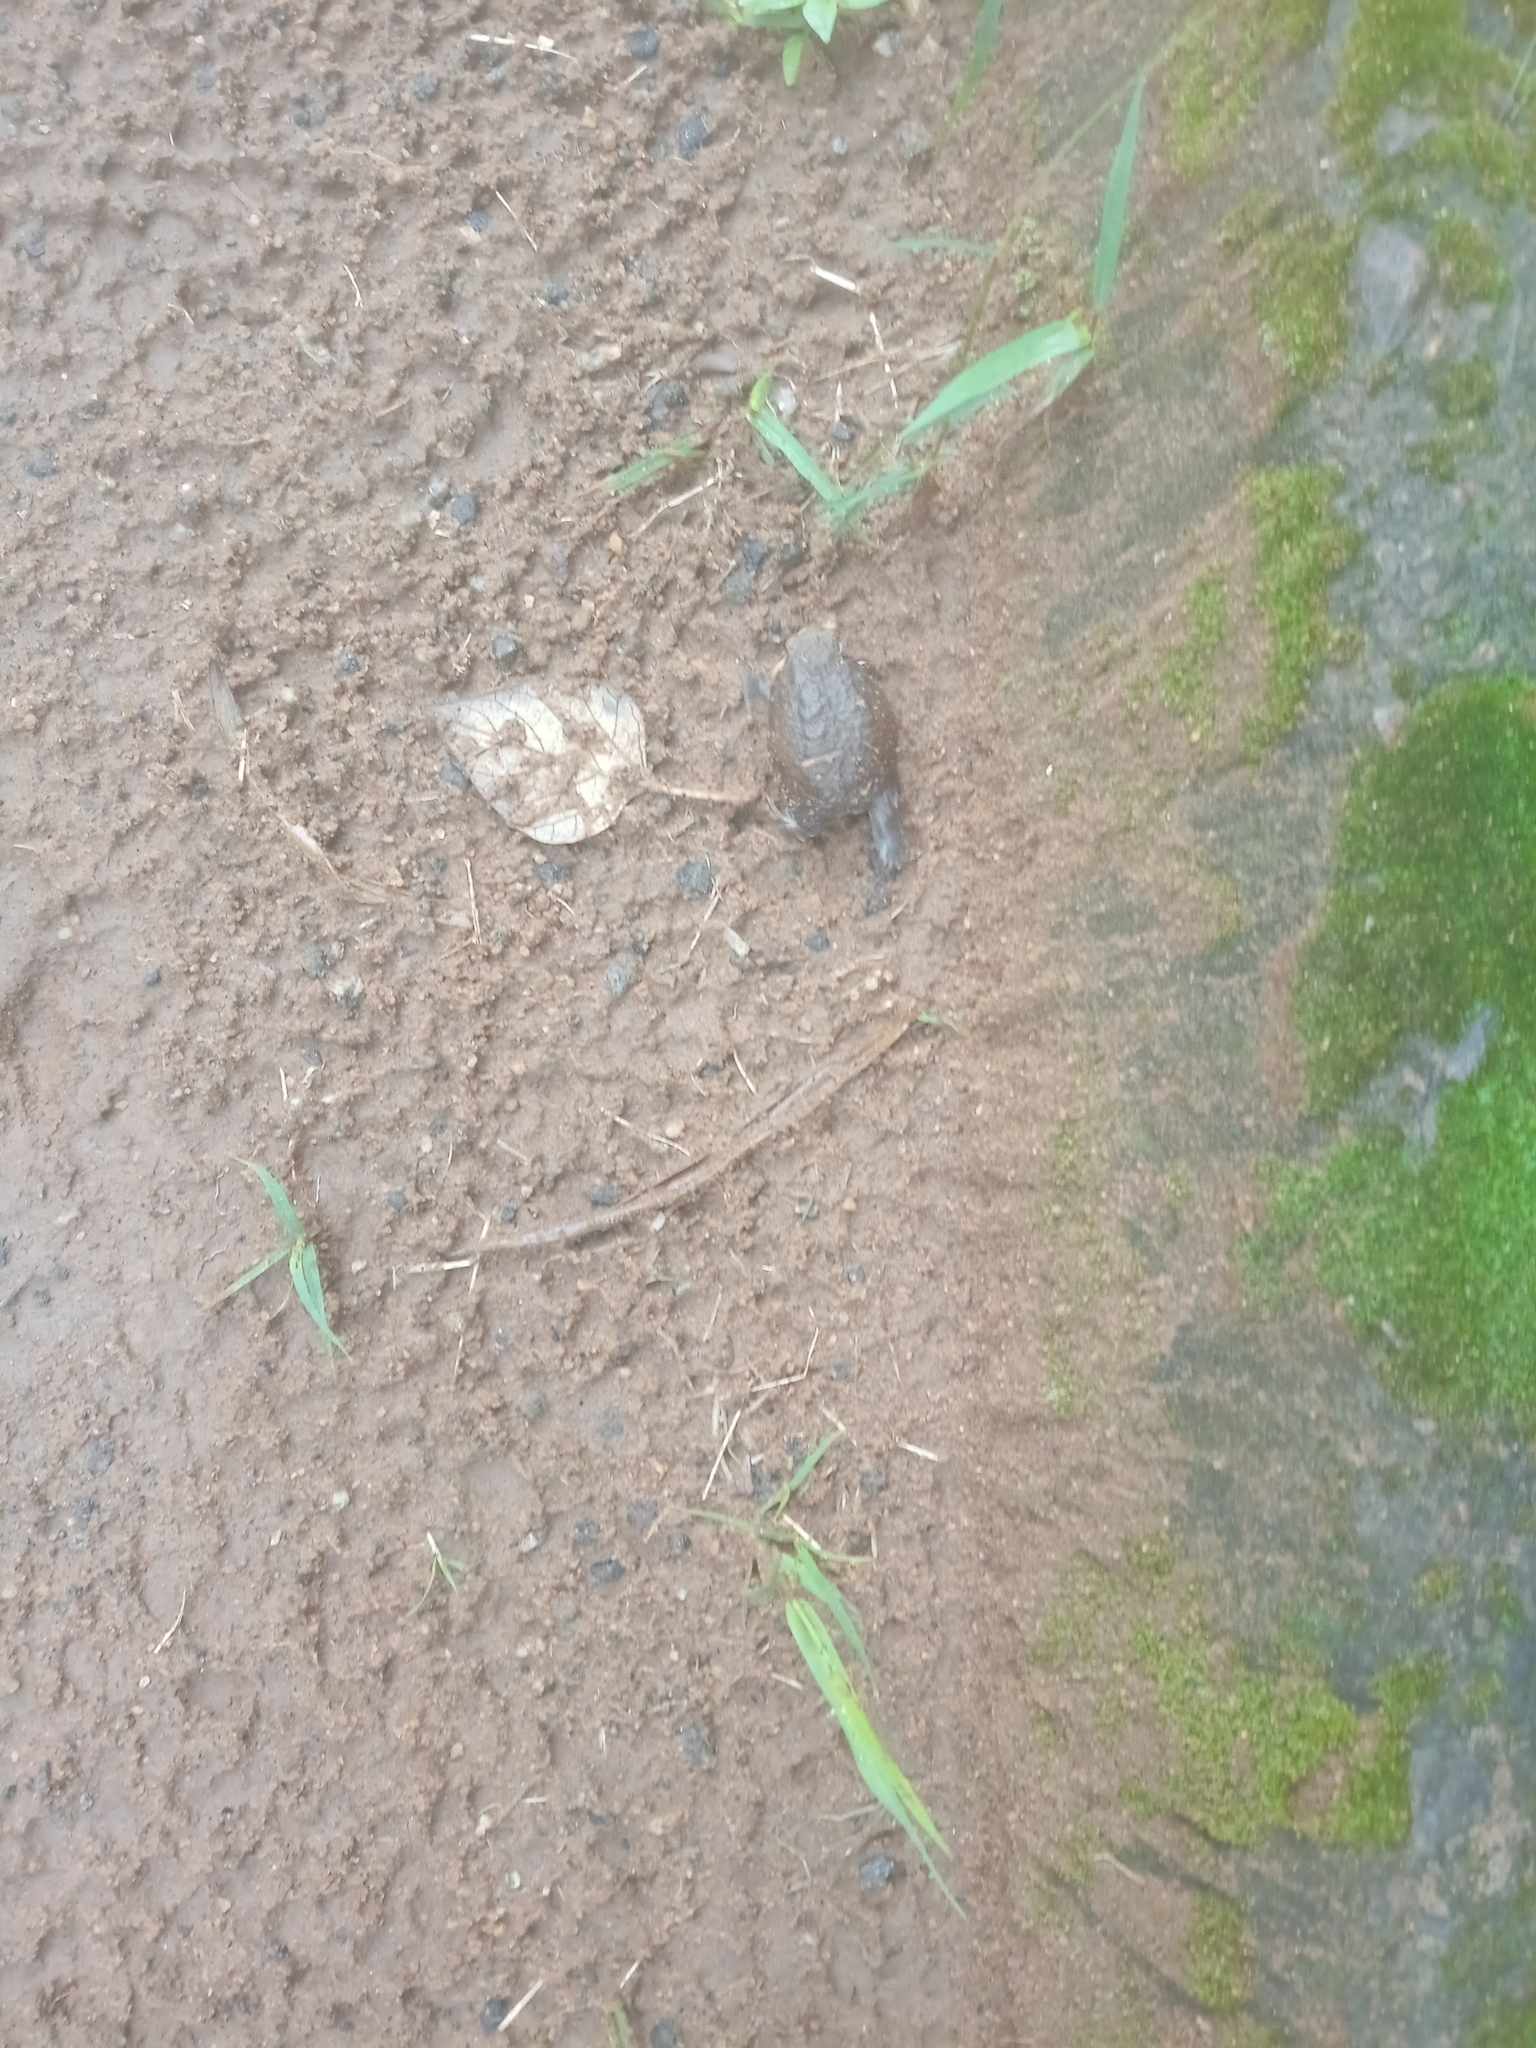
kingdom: Animalia
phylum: Chordata
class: Amphibia
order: Anura
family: Brevicipitidae
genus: Breviceps
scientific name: Breviceps mossambicus
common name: Mozambique rain frog
